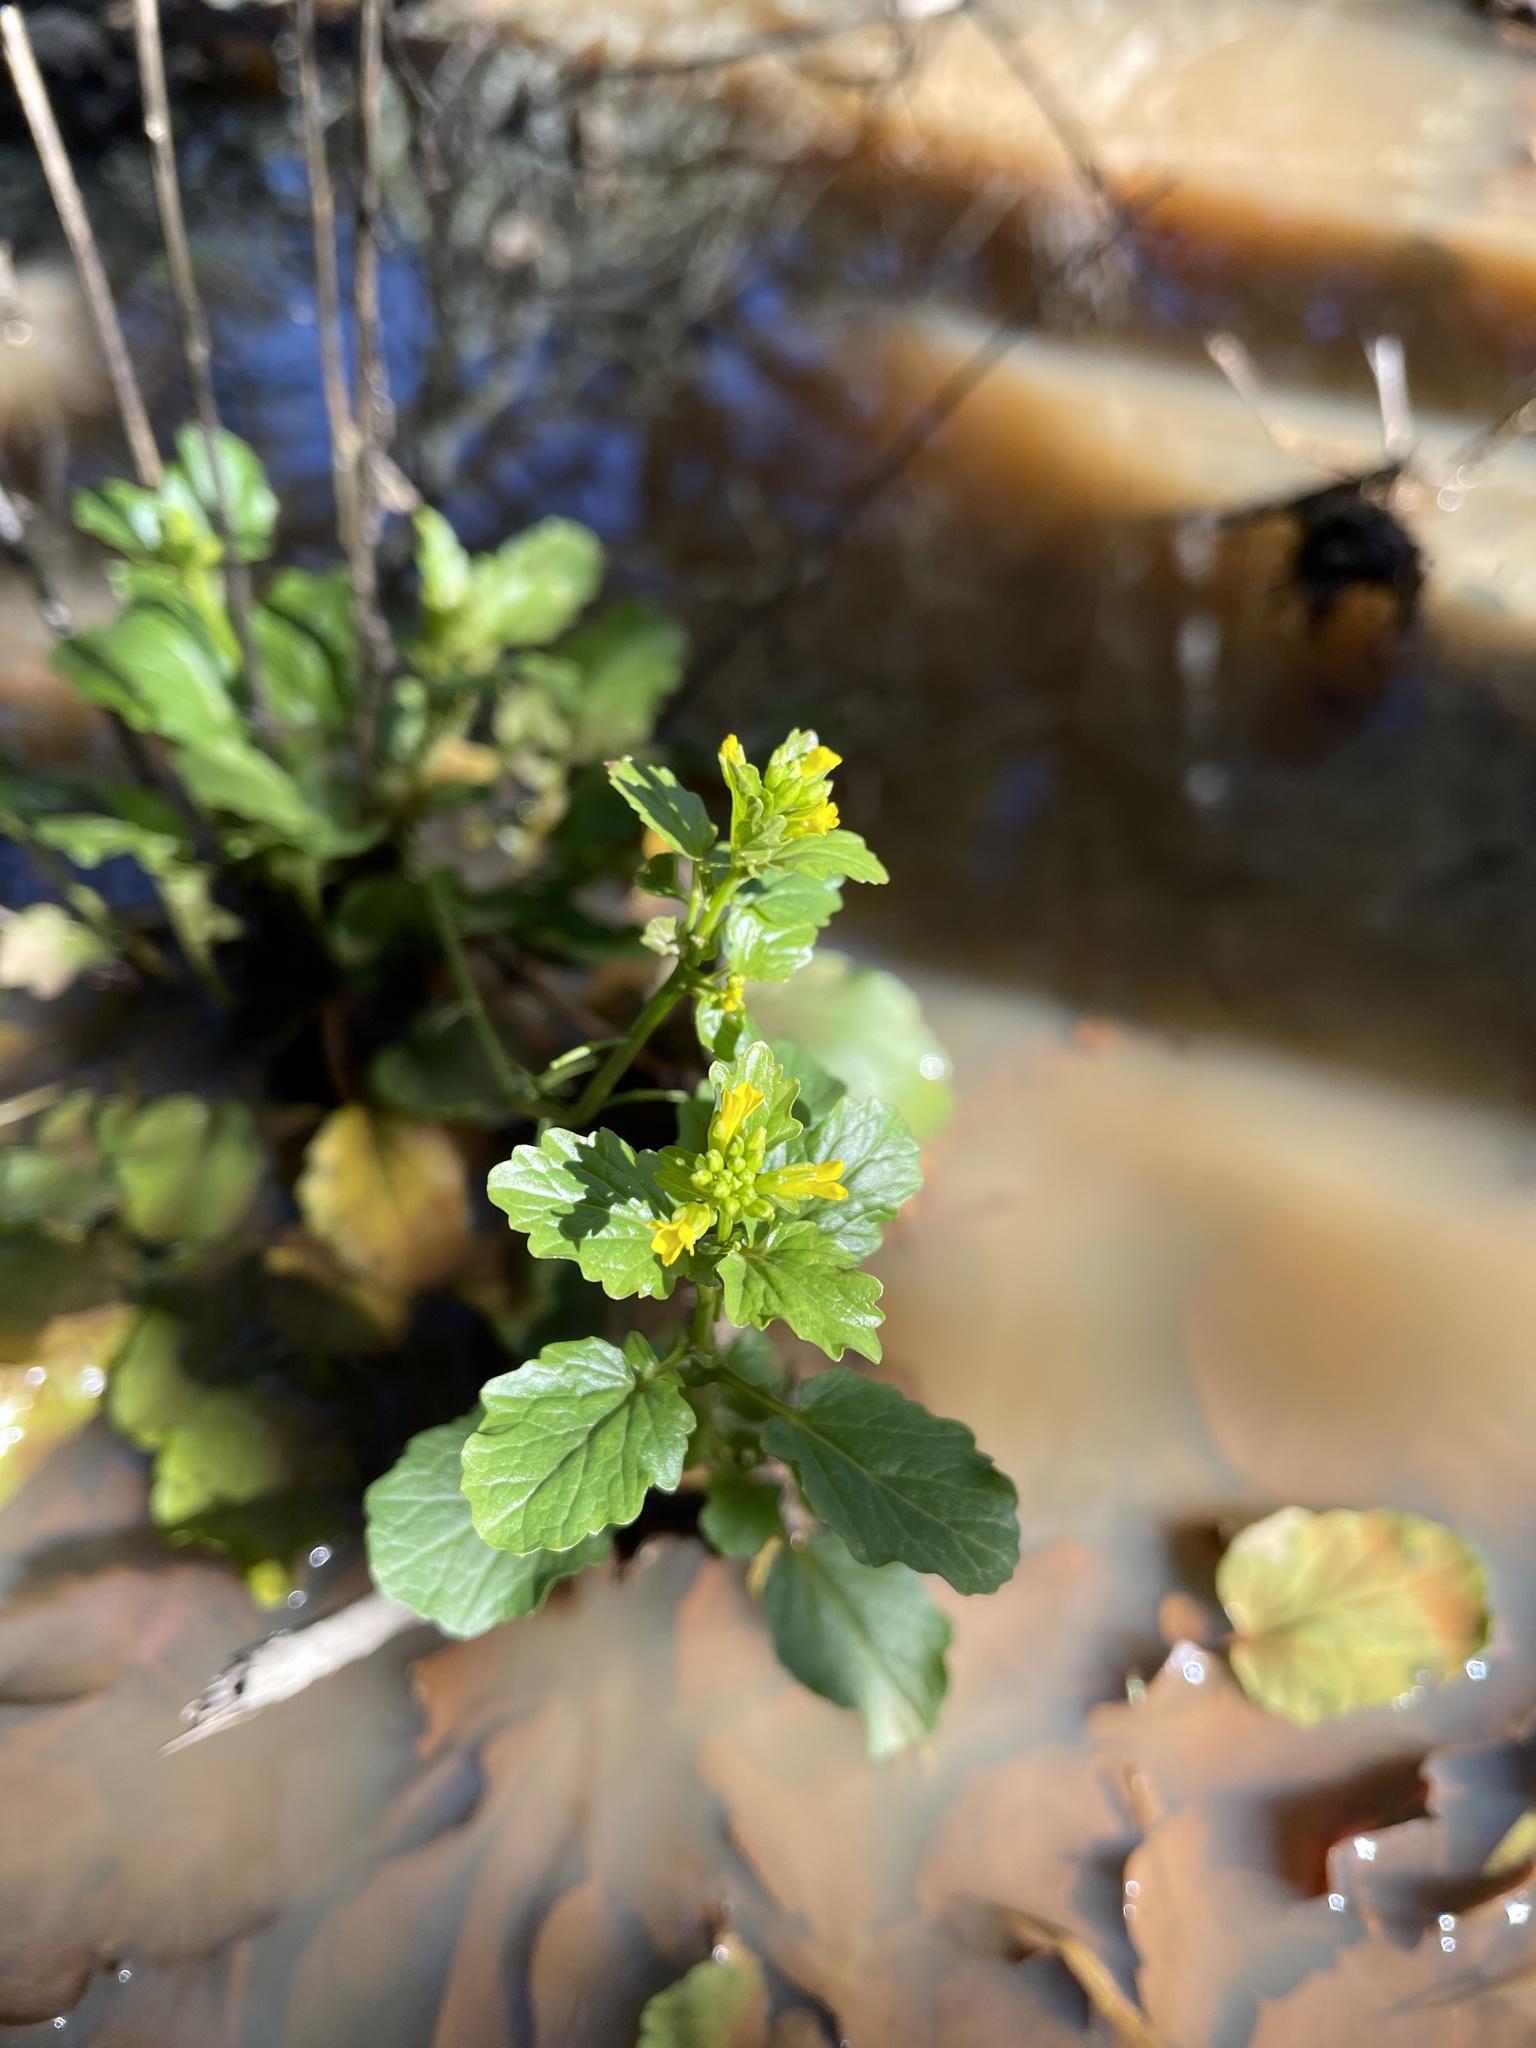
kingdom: Plantae
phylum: Tracheophyta
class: Magnoliopsida
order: Brassicales
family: Brassicaceae
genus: Barbarea
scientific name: Barbarea orthoceras
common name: American wintercress
